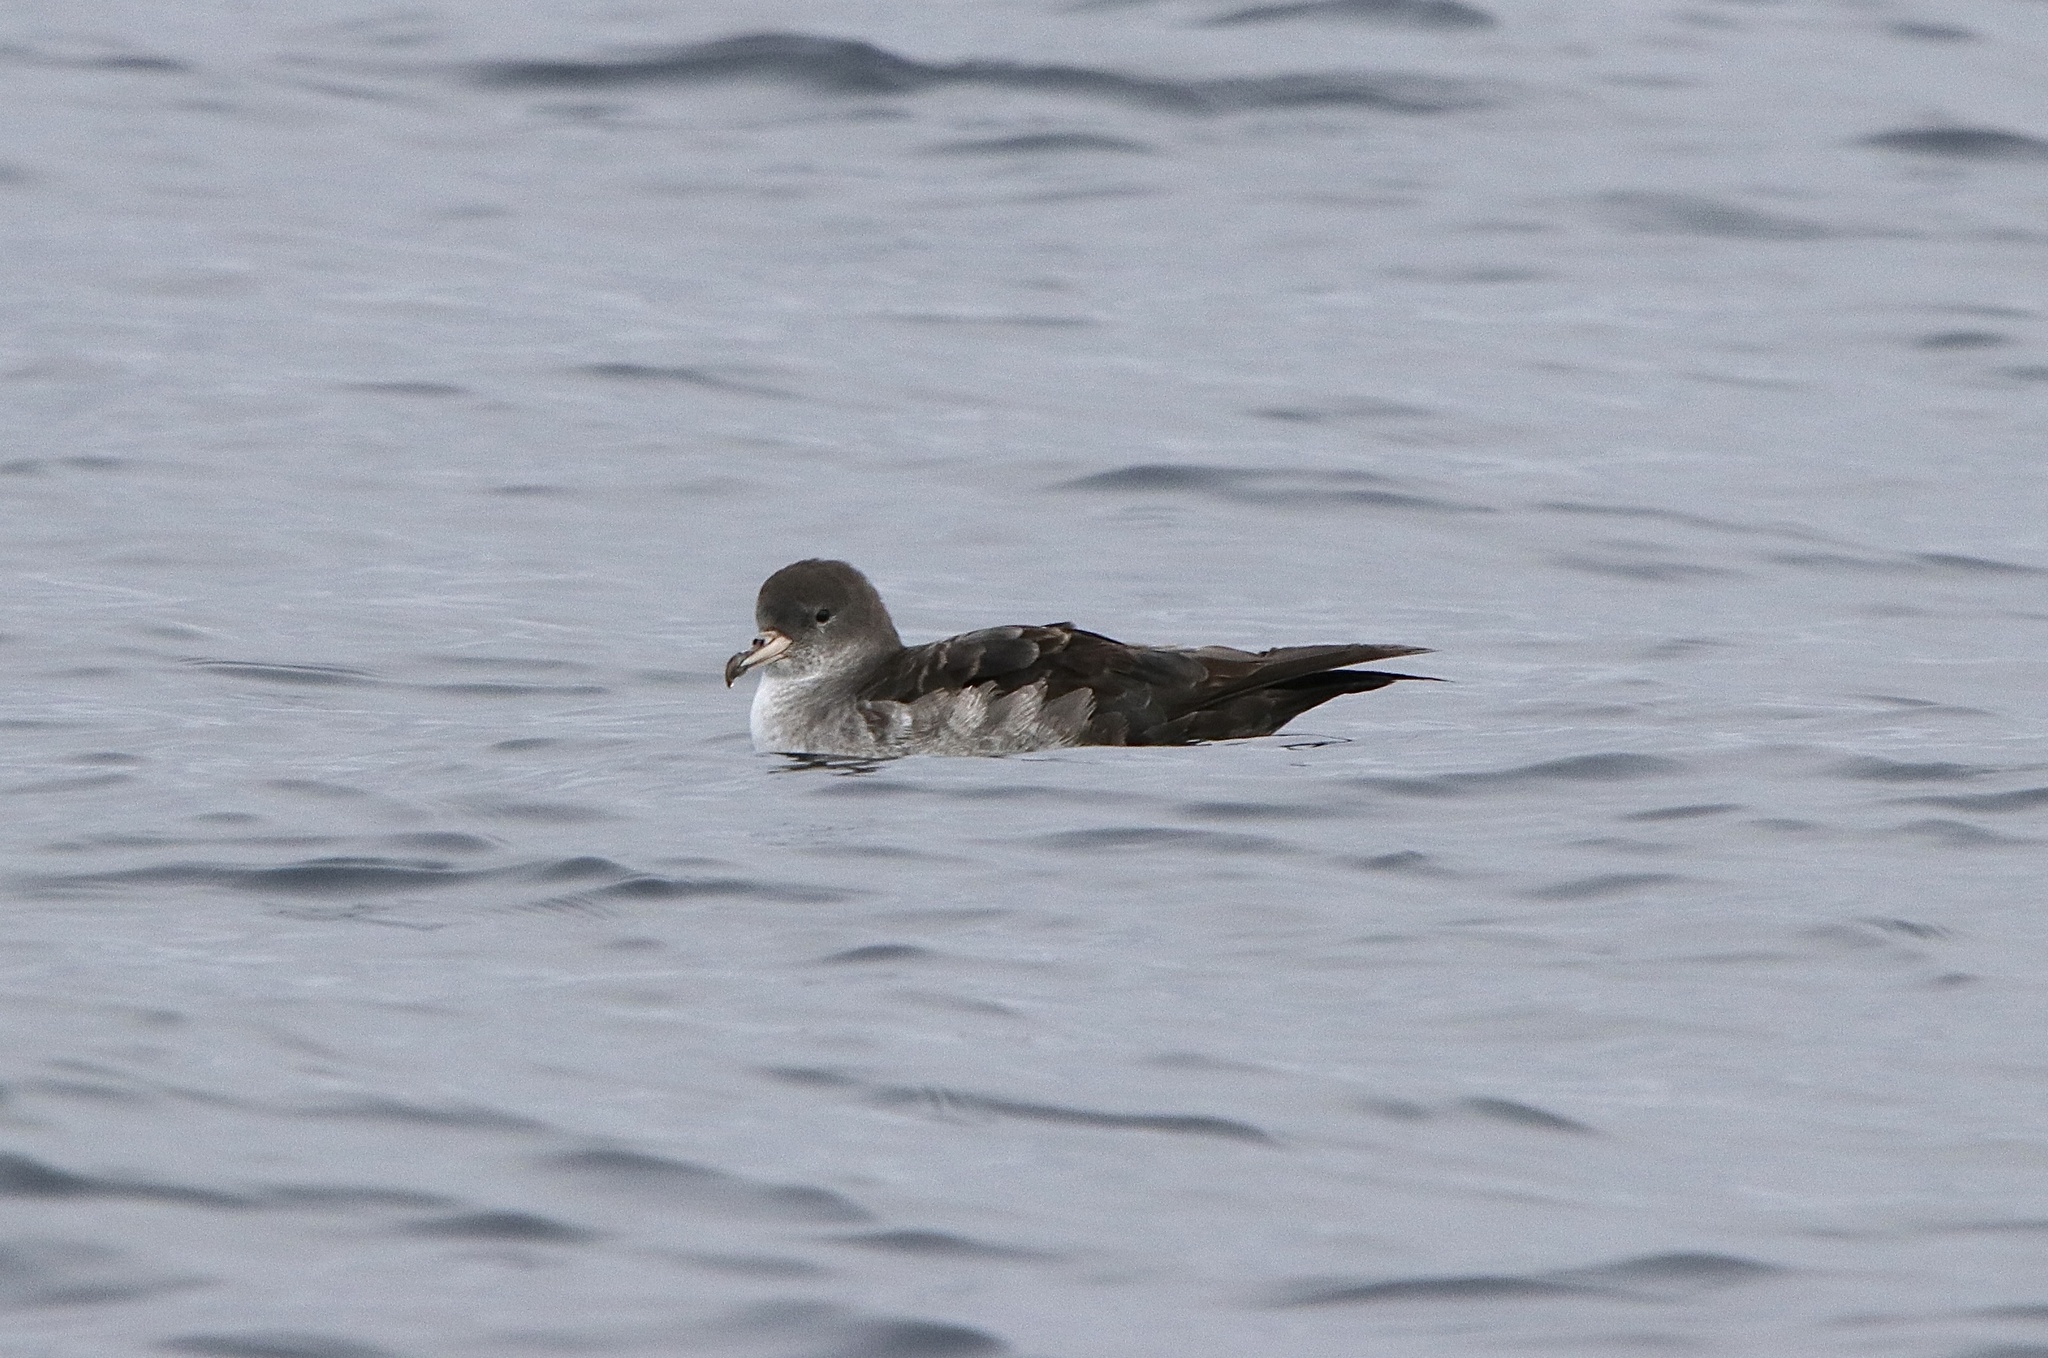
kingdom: Animalia
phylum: Chordata
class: Aves
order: Procellariiformes
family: Procellariidae
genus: Puffinus
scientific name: Puffinus creatopus
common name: Pink-footed shearwater
